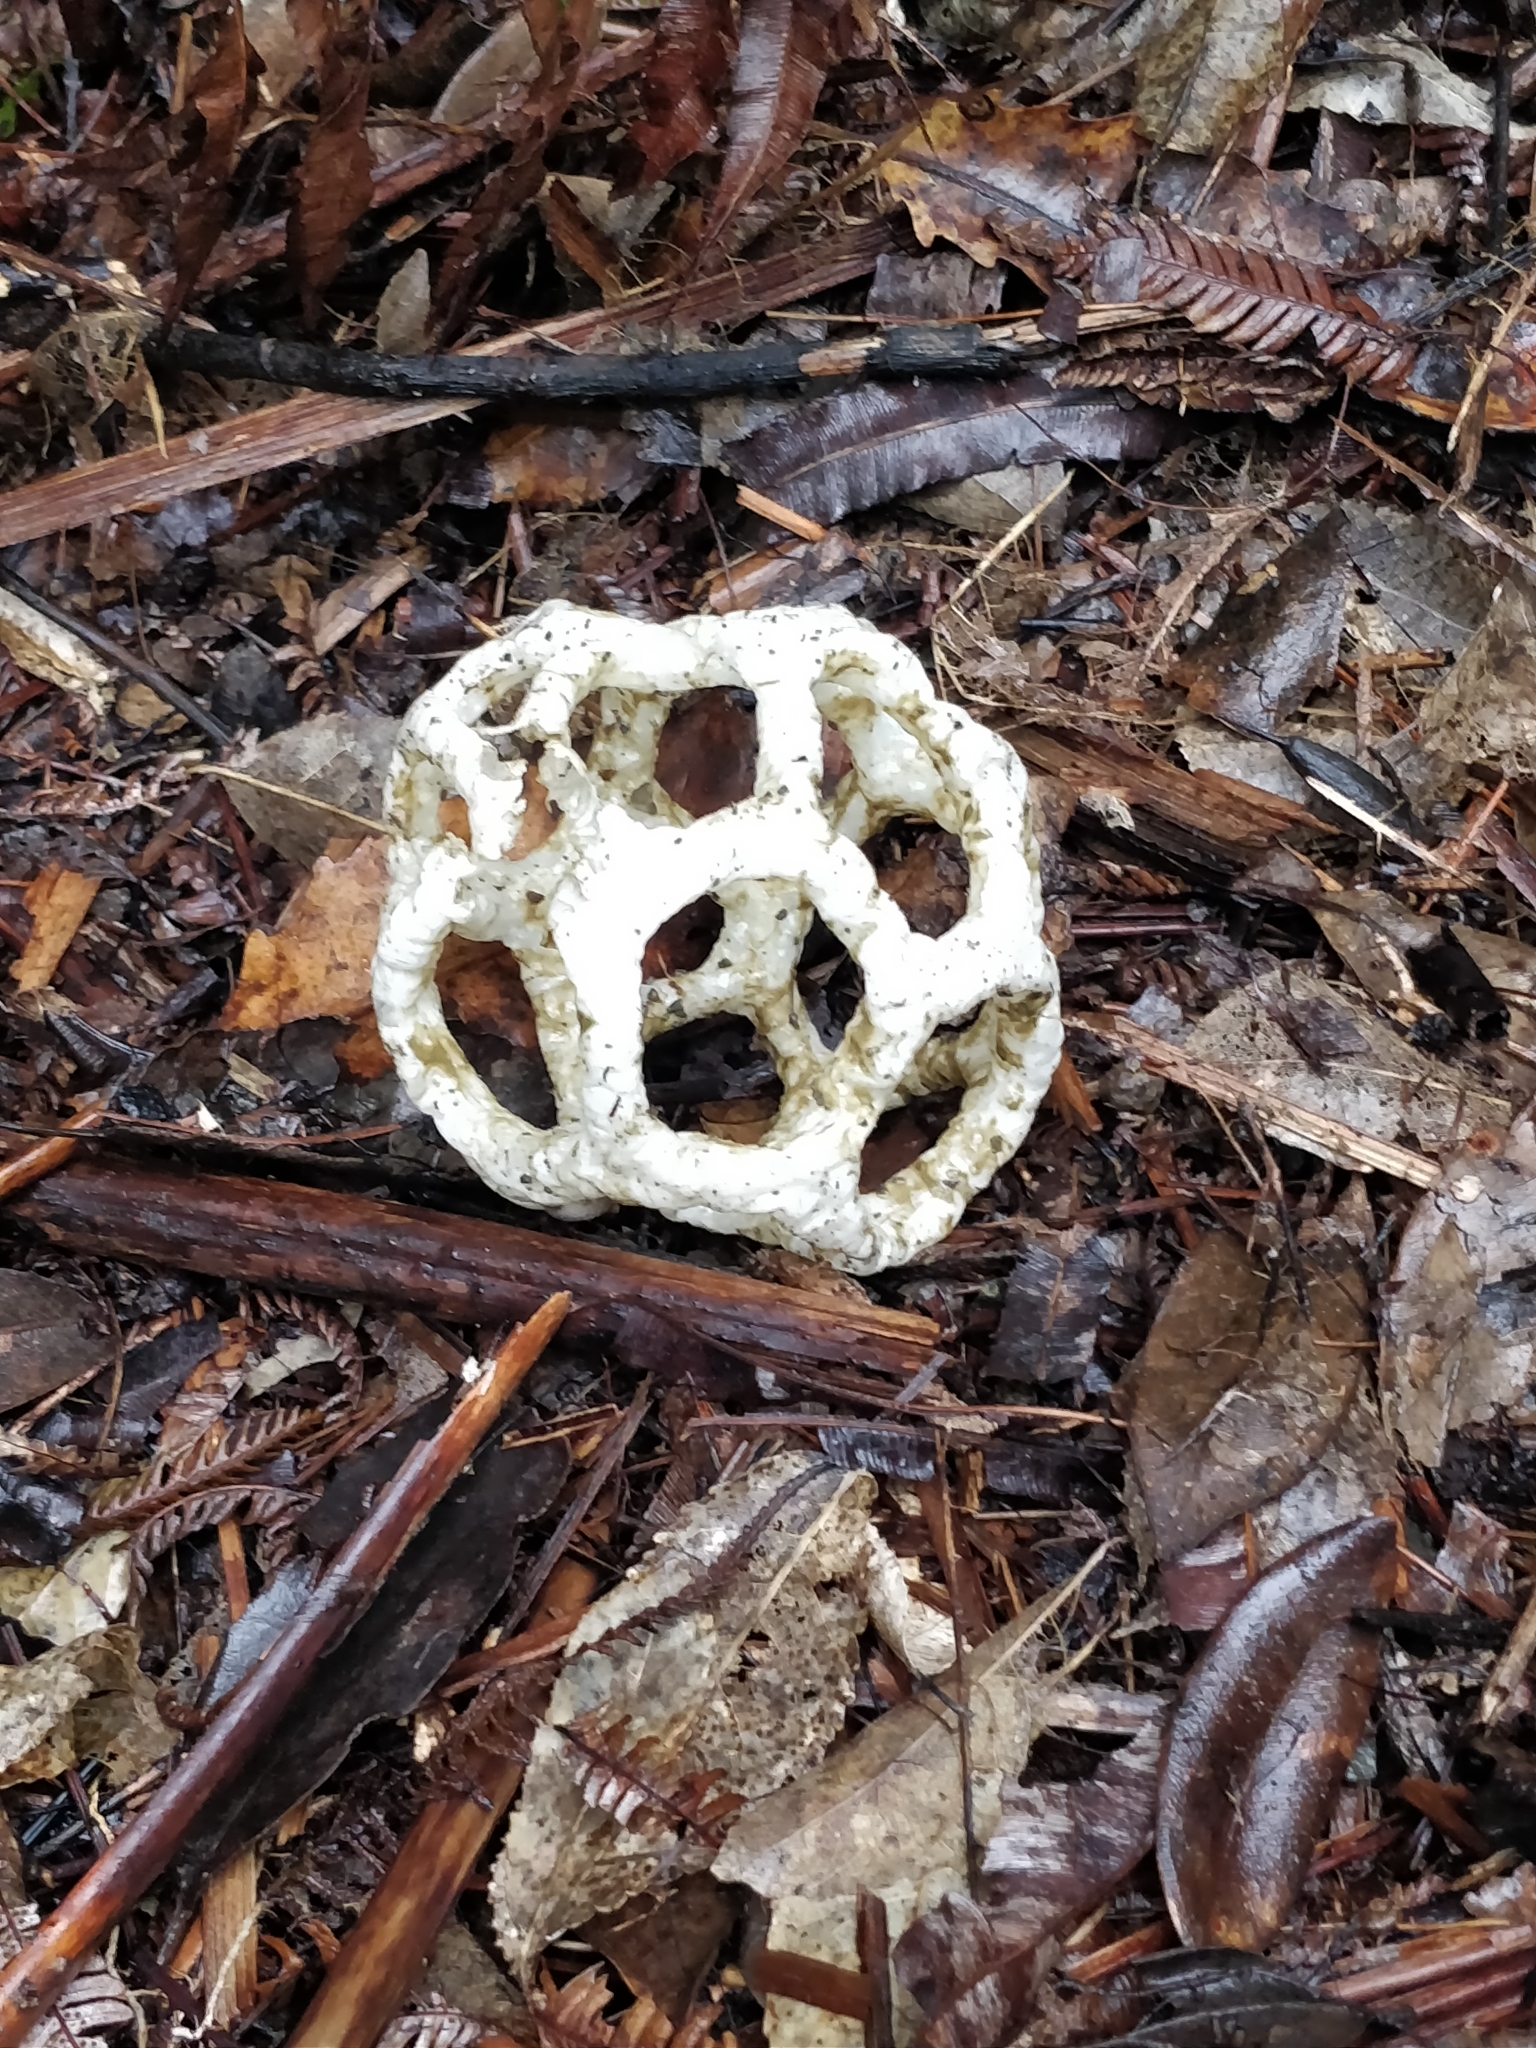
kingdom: Fungi
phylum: Basidiomycota
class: Agaricomycetes
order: Phallales
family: Phallaceae
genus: Ileodictyon
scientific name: Ileodictyon cibarium
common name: Basket fungus
